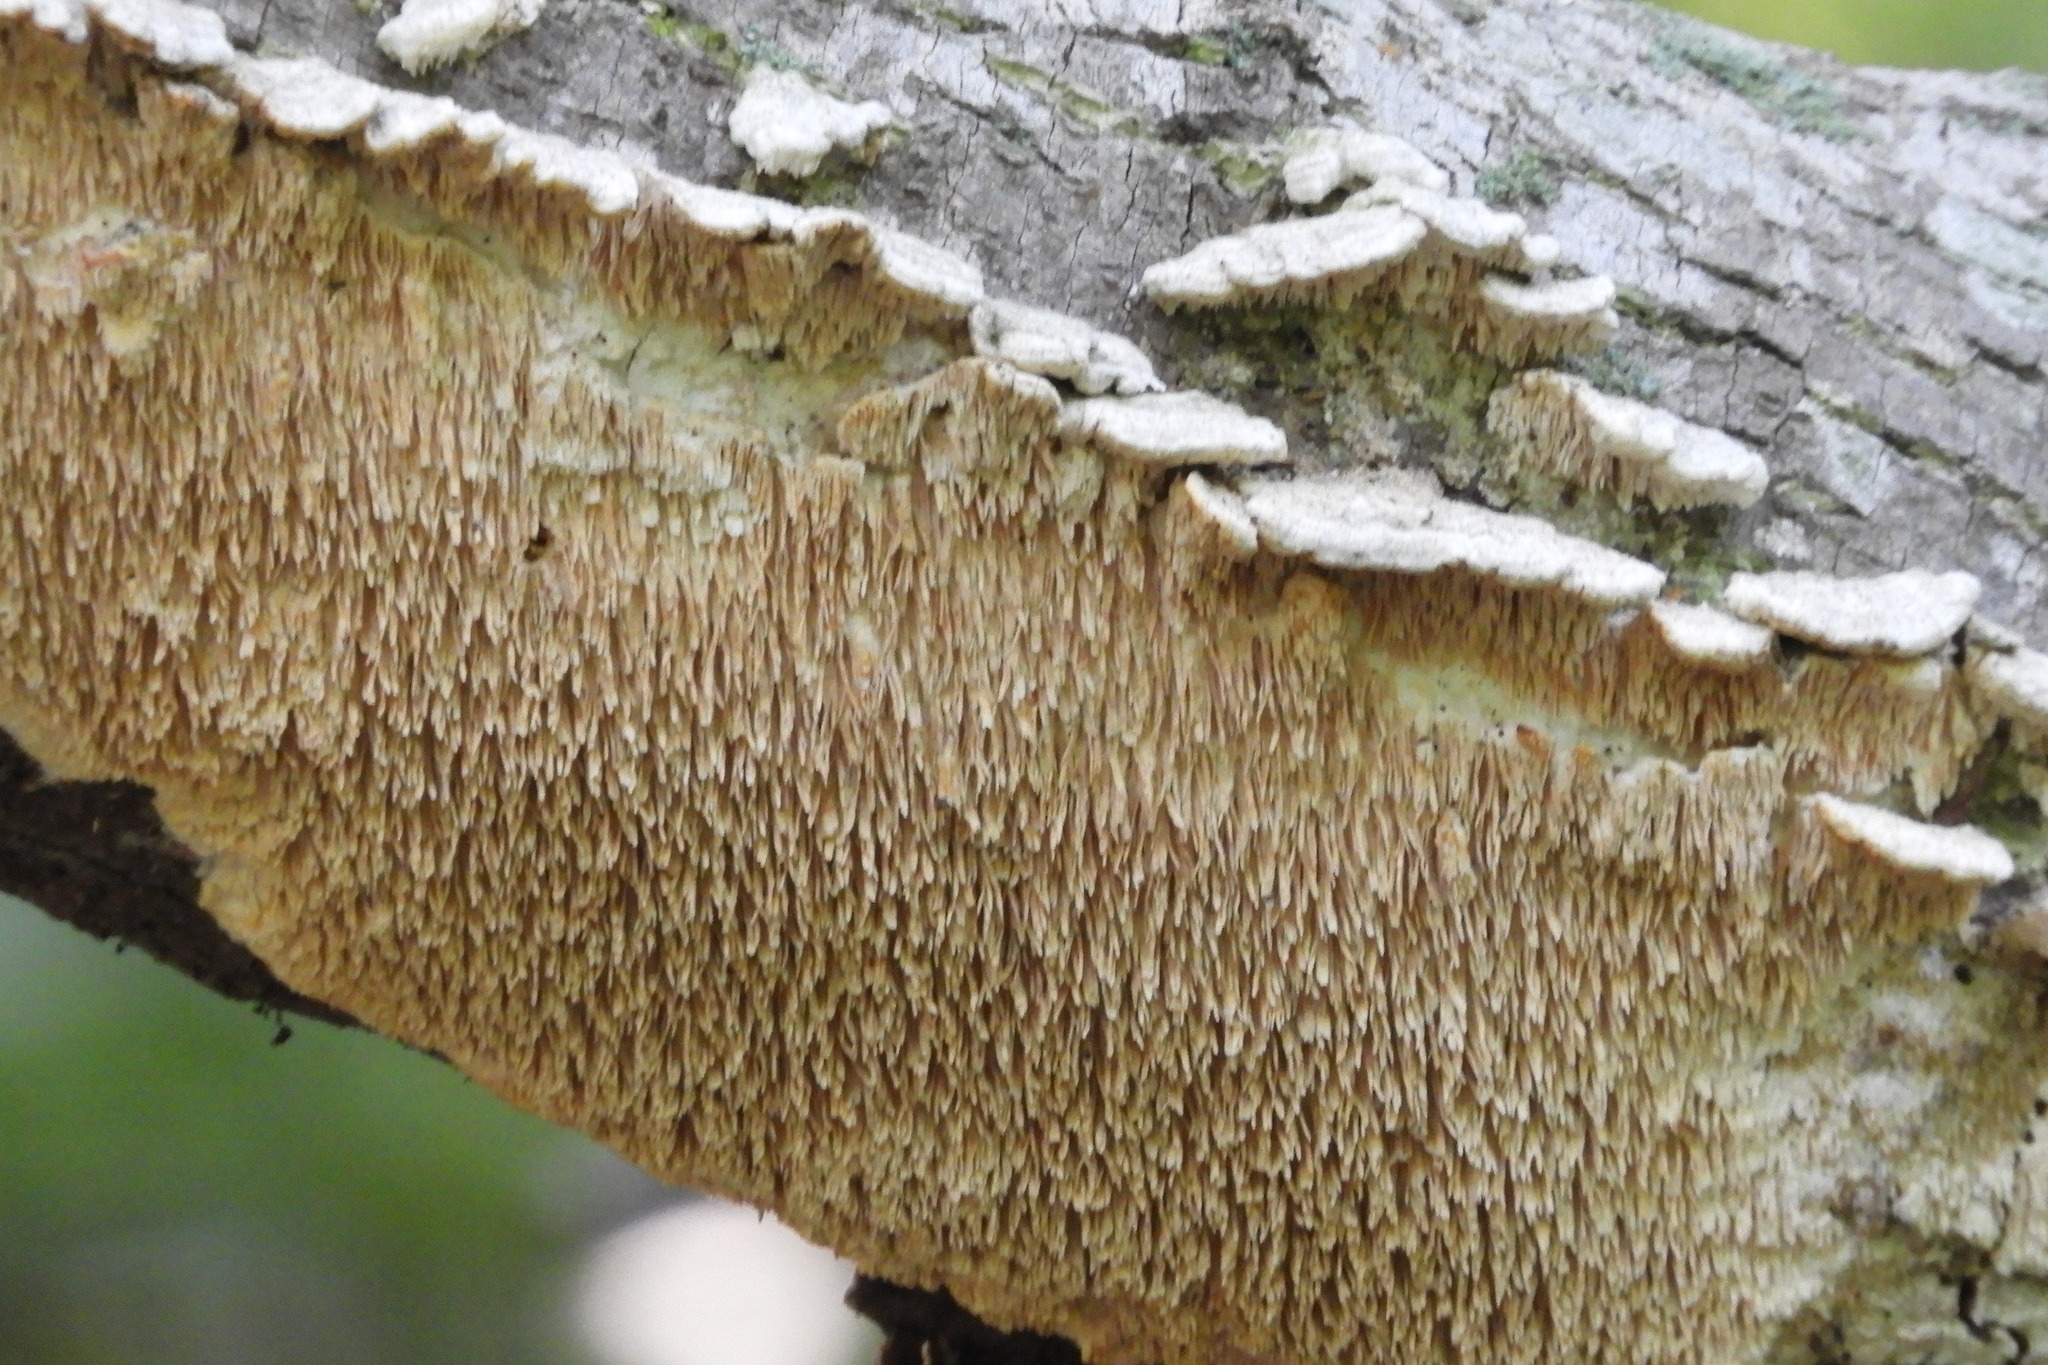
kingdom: Fungi
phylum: Basidiomycota
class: Agaricomycetes
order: Polyporales
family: Irpicaceae
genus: Irpex
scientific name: Irpex lacteus
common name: Milk-white toothed polypore
